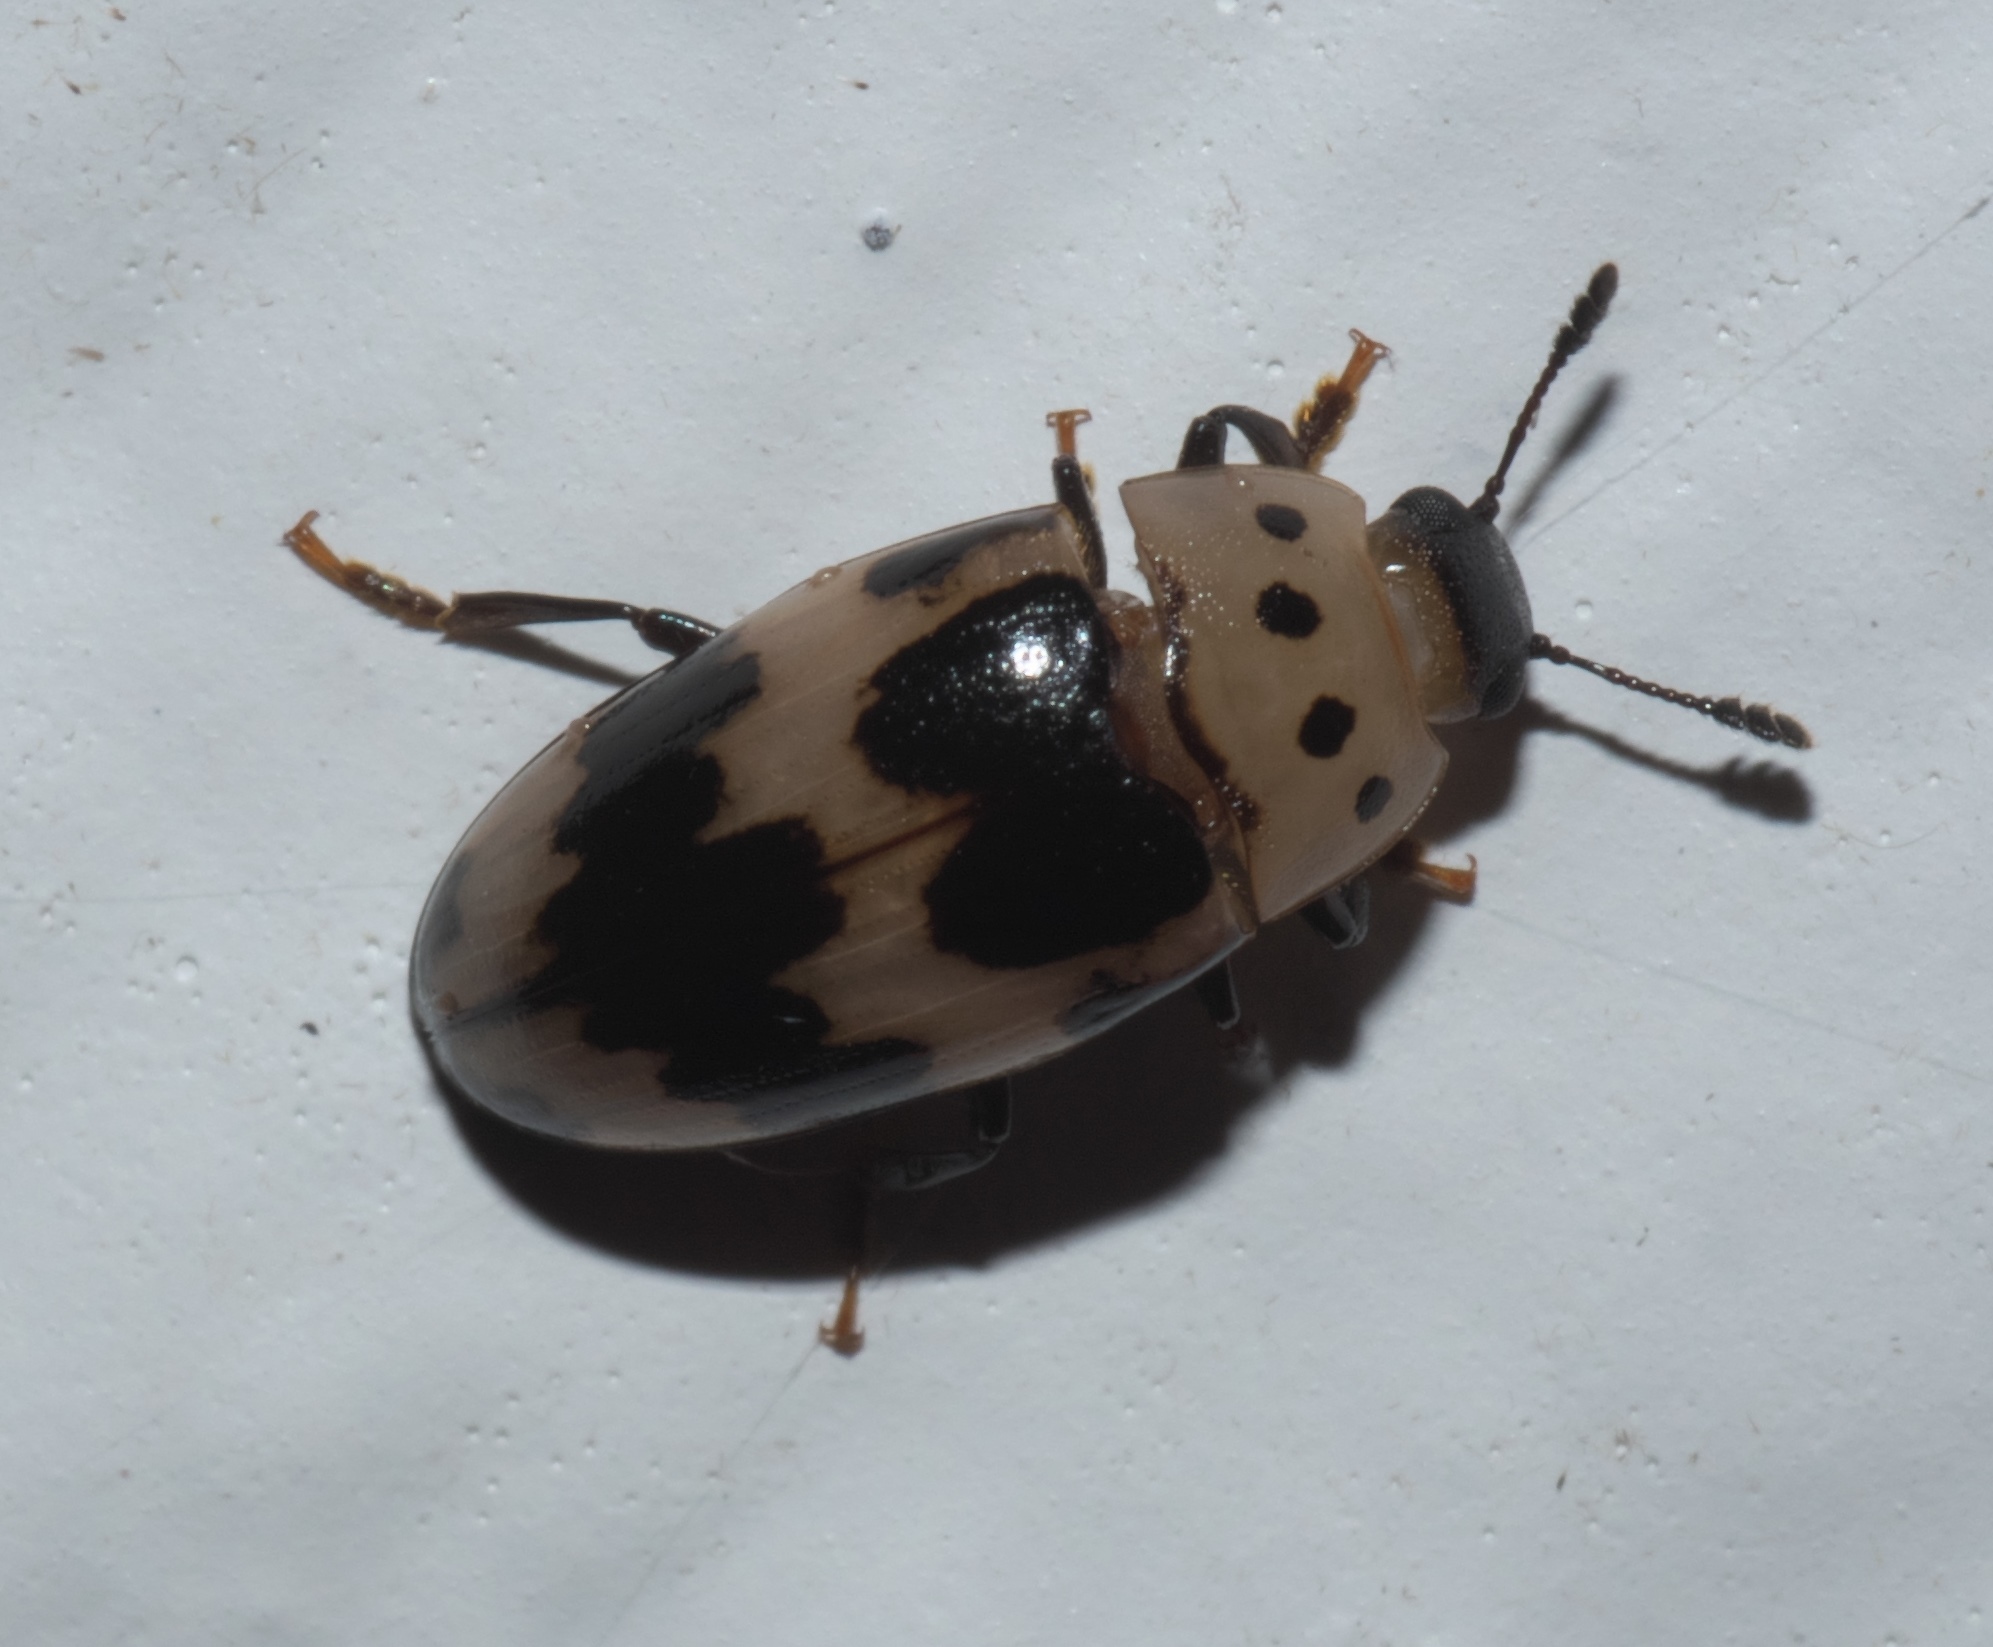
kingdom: Animalia
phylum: Arthropoda
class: Insecta
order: Coleoptera
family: Erotylidae
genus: Ischyrus
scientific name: Ischyrus quadripunctatus
